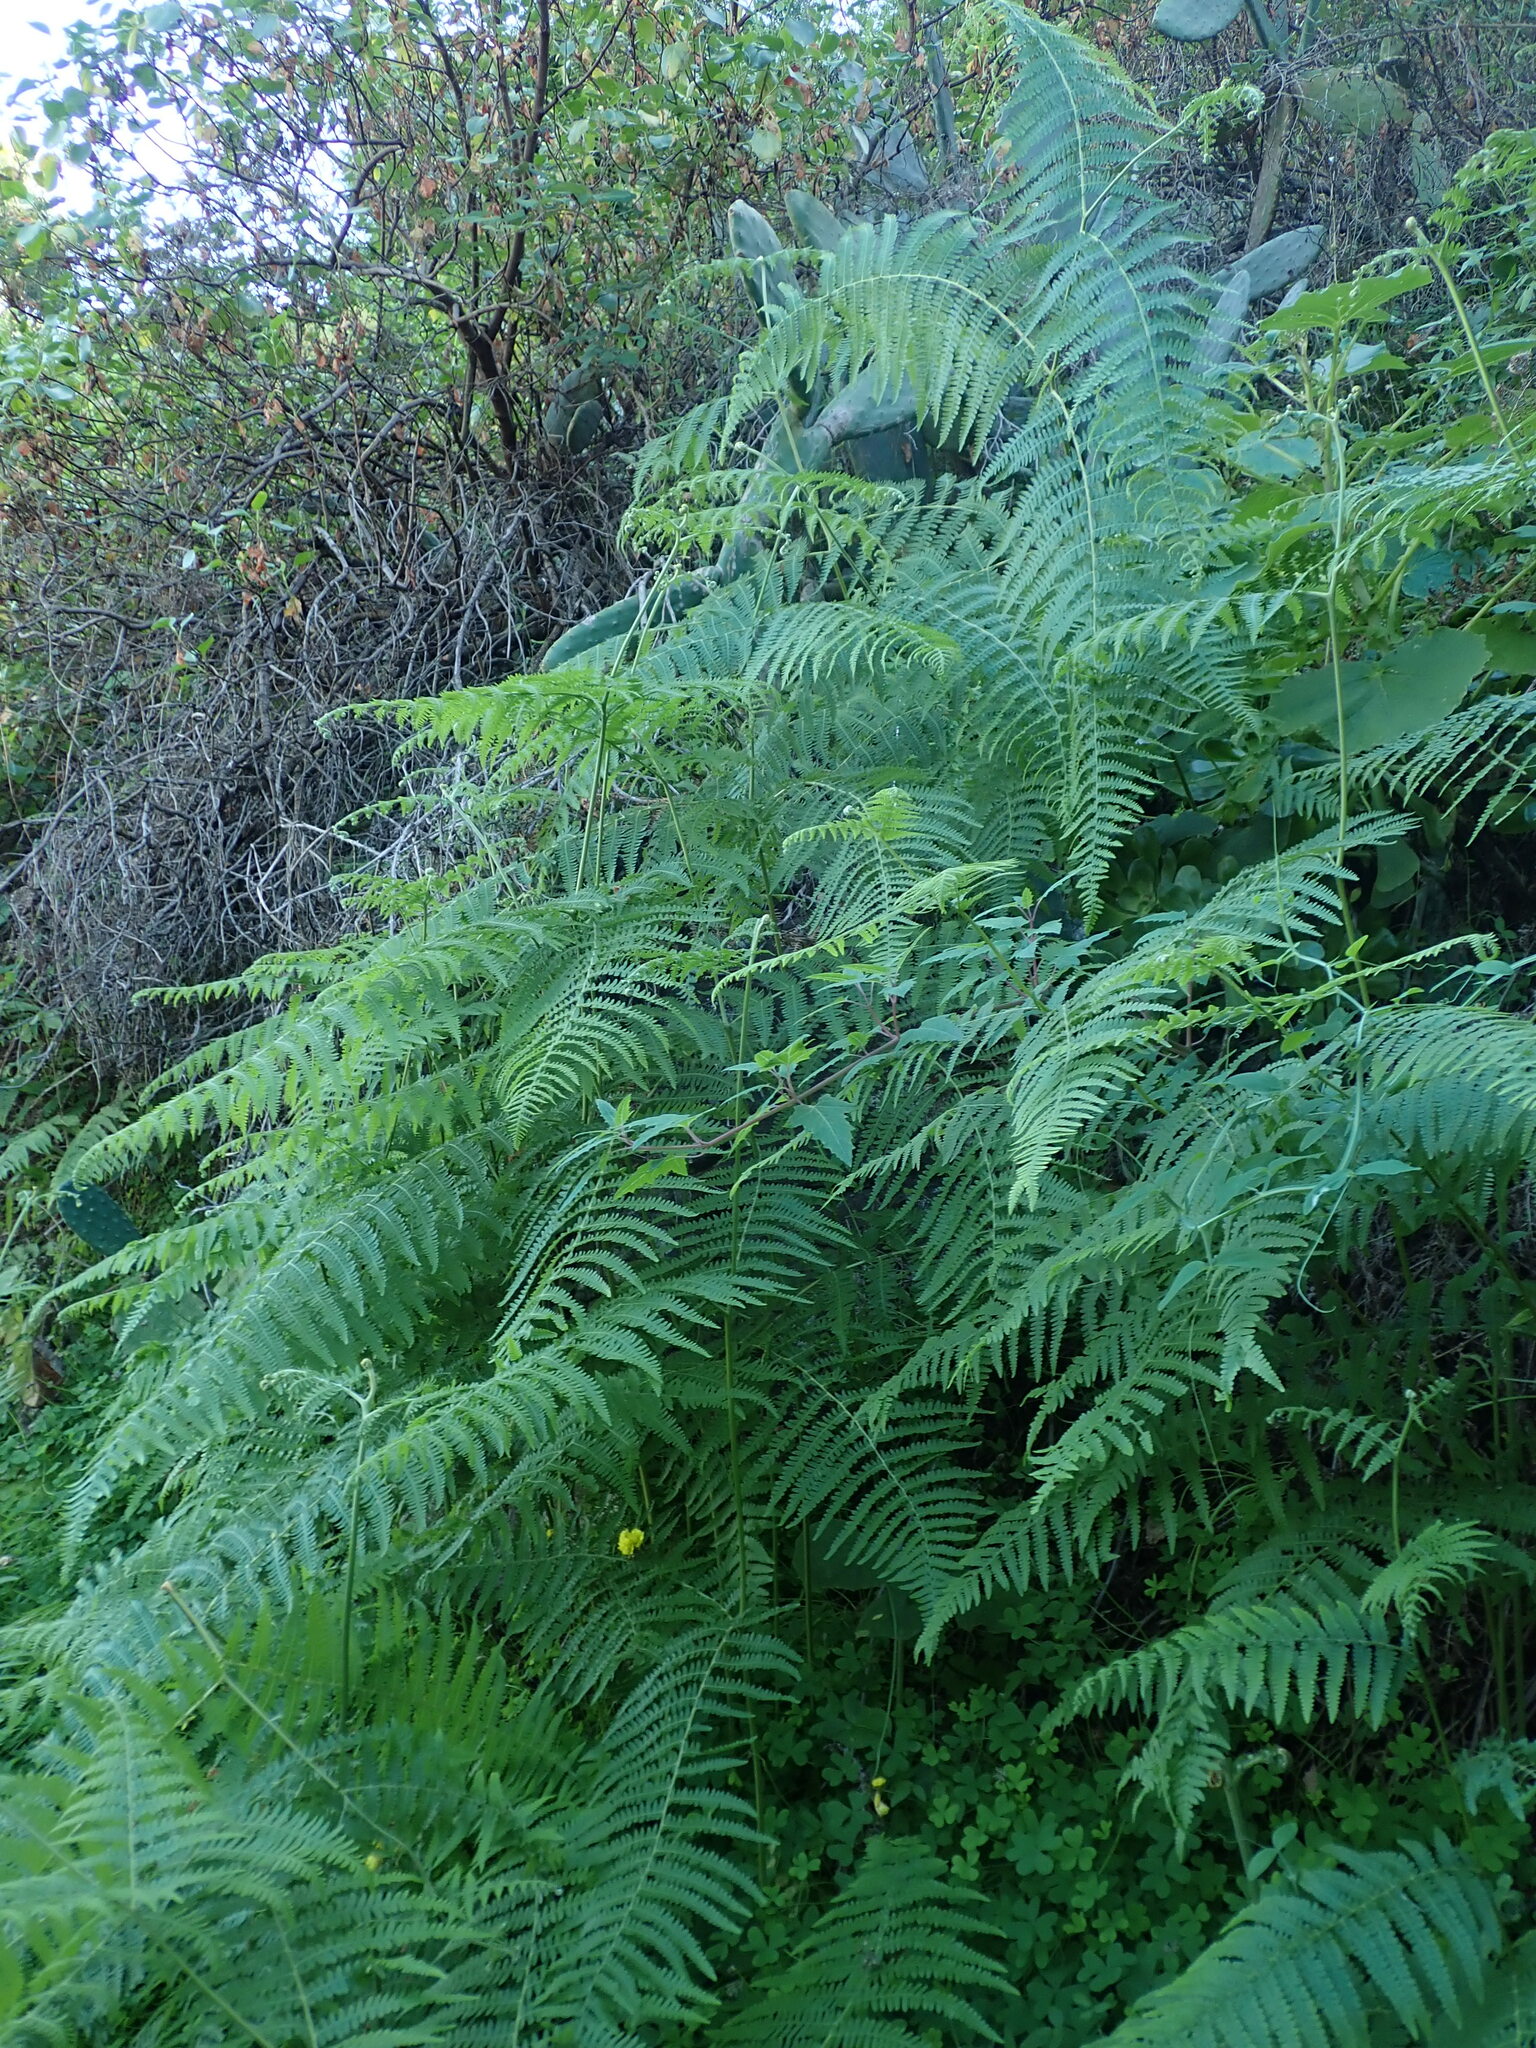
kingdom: Plantae
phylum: Tracheophyta
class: Polypodiopsida
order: Polypodiales
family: Dennstaedtiaceae
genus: Pteridium
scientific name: Pteridium aquilinum
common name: Bracken
